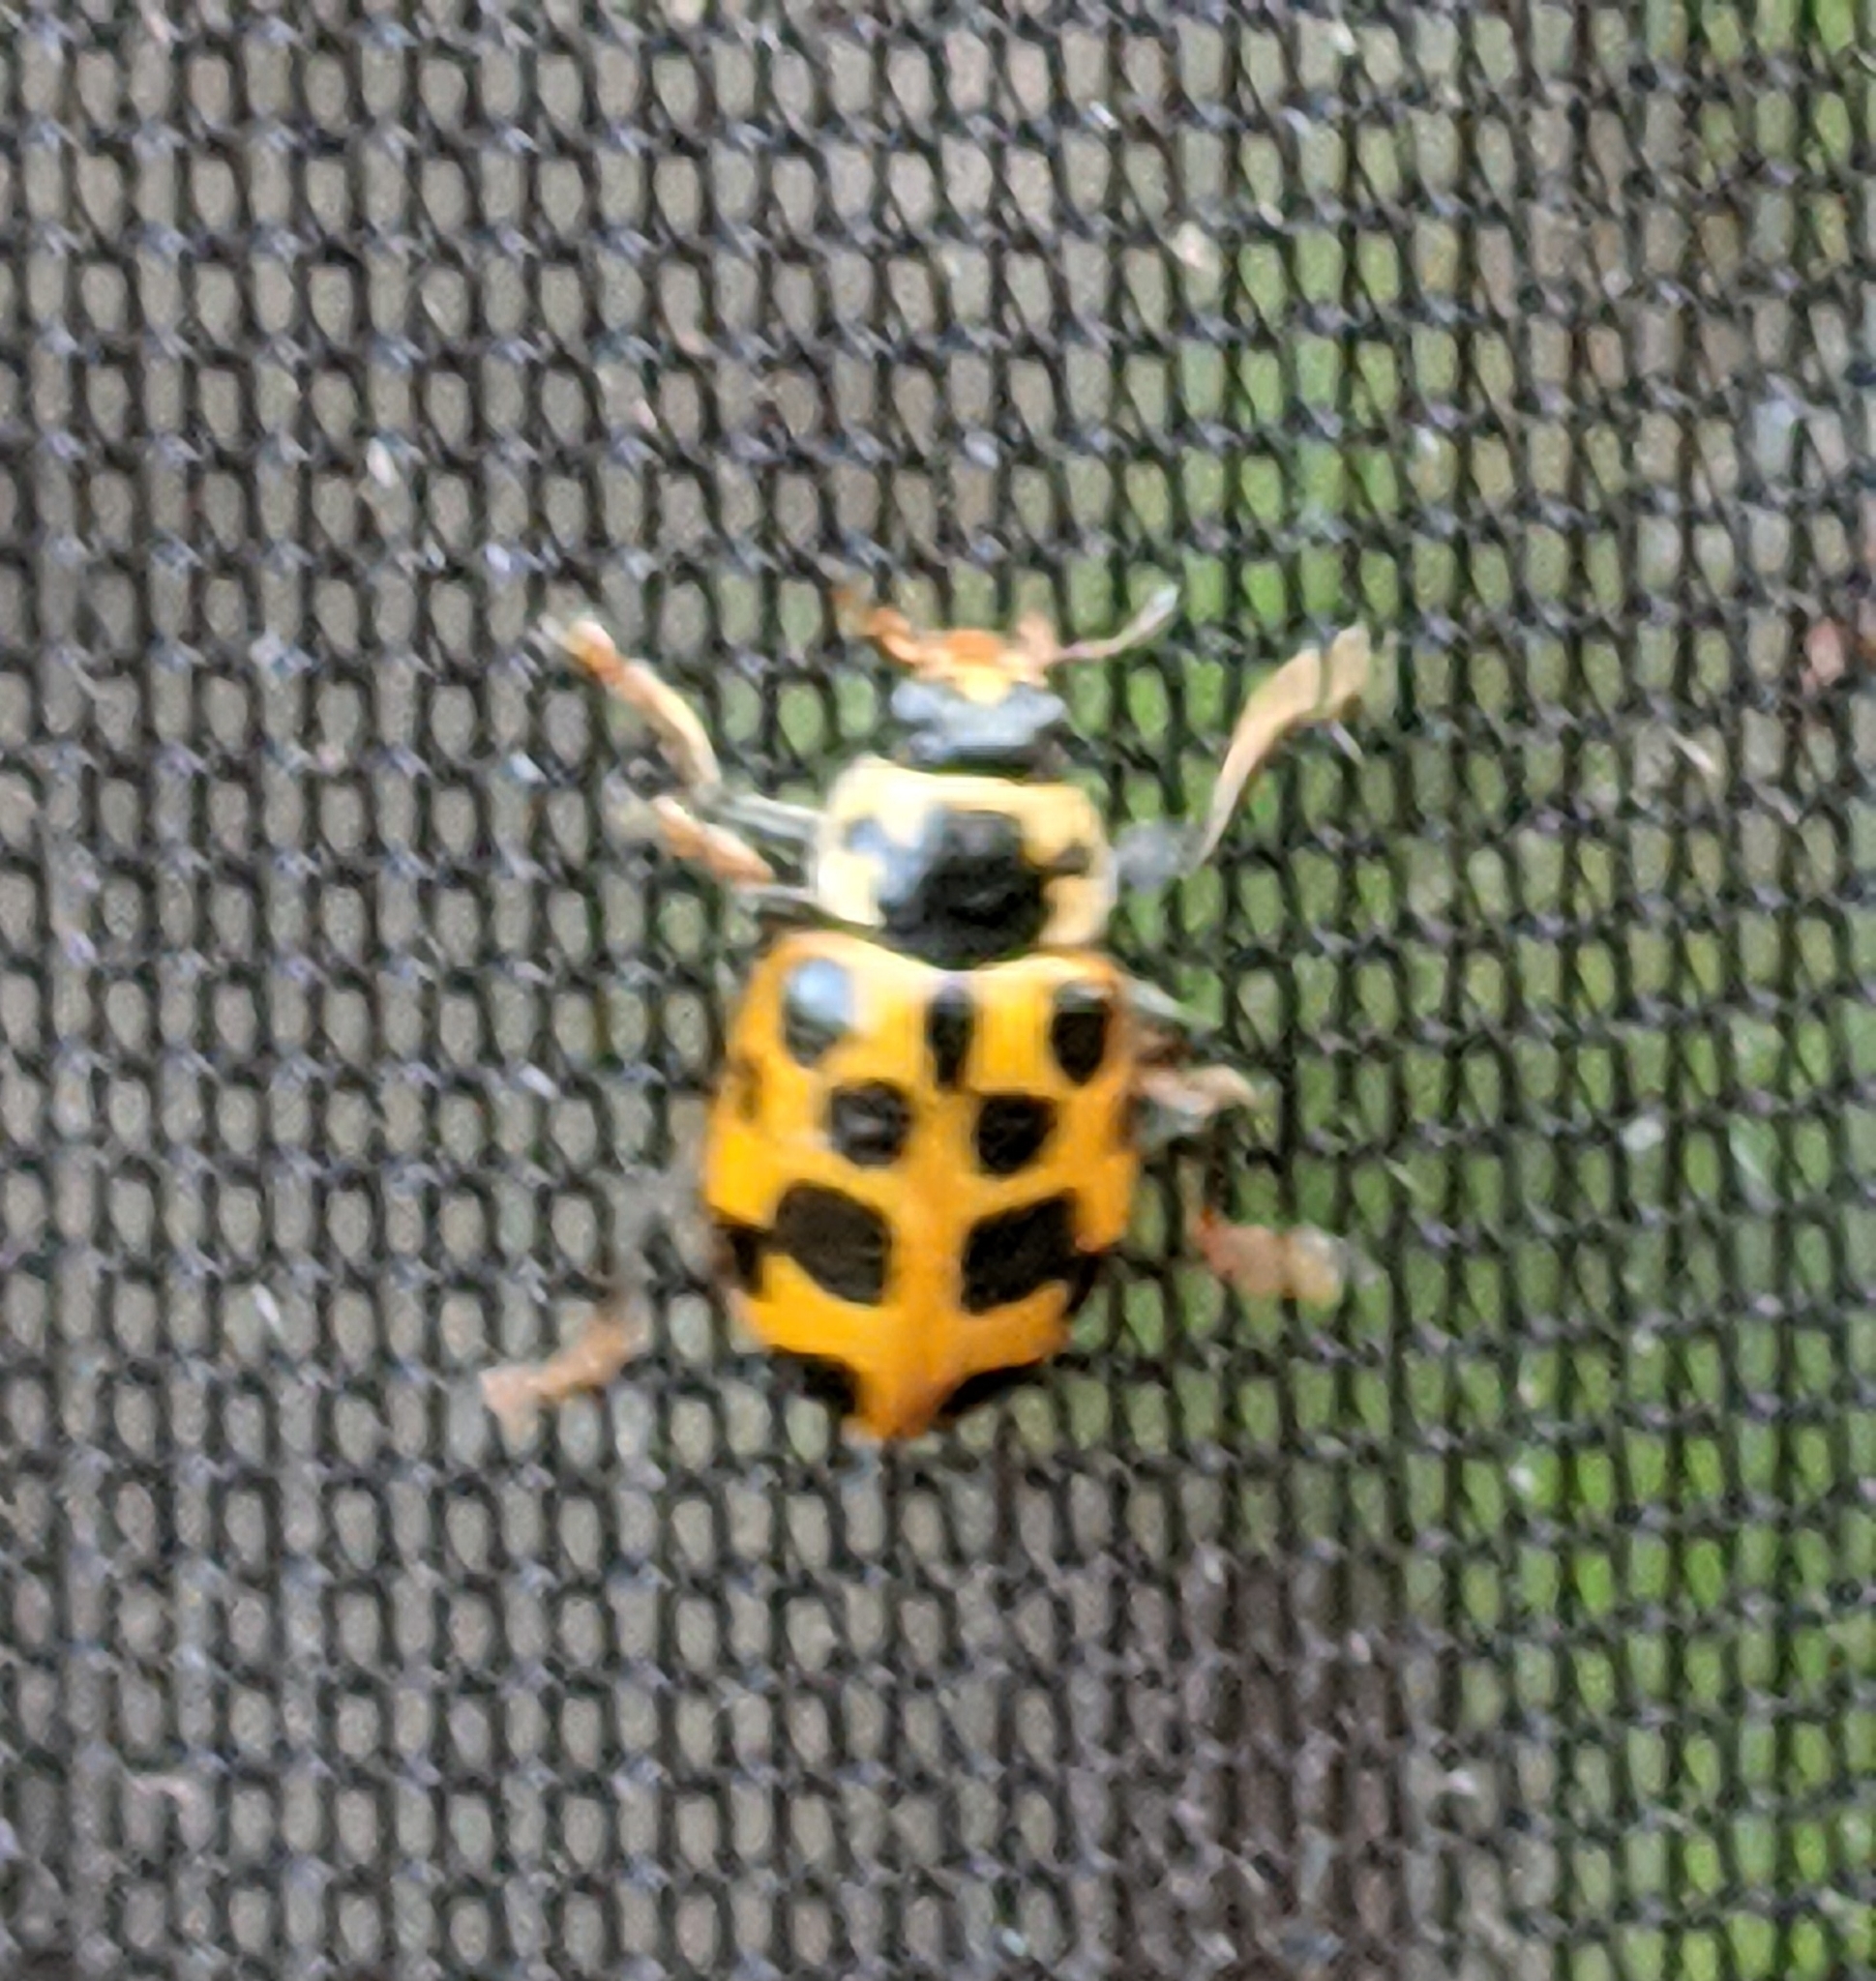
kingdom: Animalia
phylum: Arthropoda
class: Insecta
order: Coleoptera
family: Coccinellidae
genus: Hippodamia
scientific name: Hippodamia tredecimpunctata
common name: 13-spot ladybird
